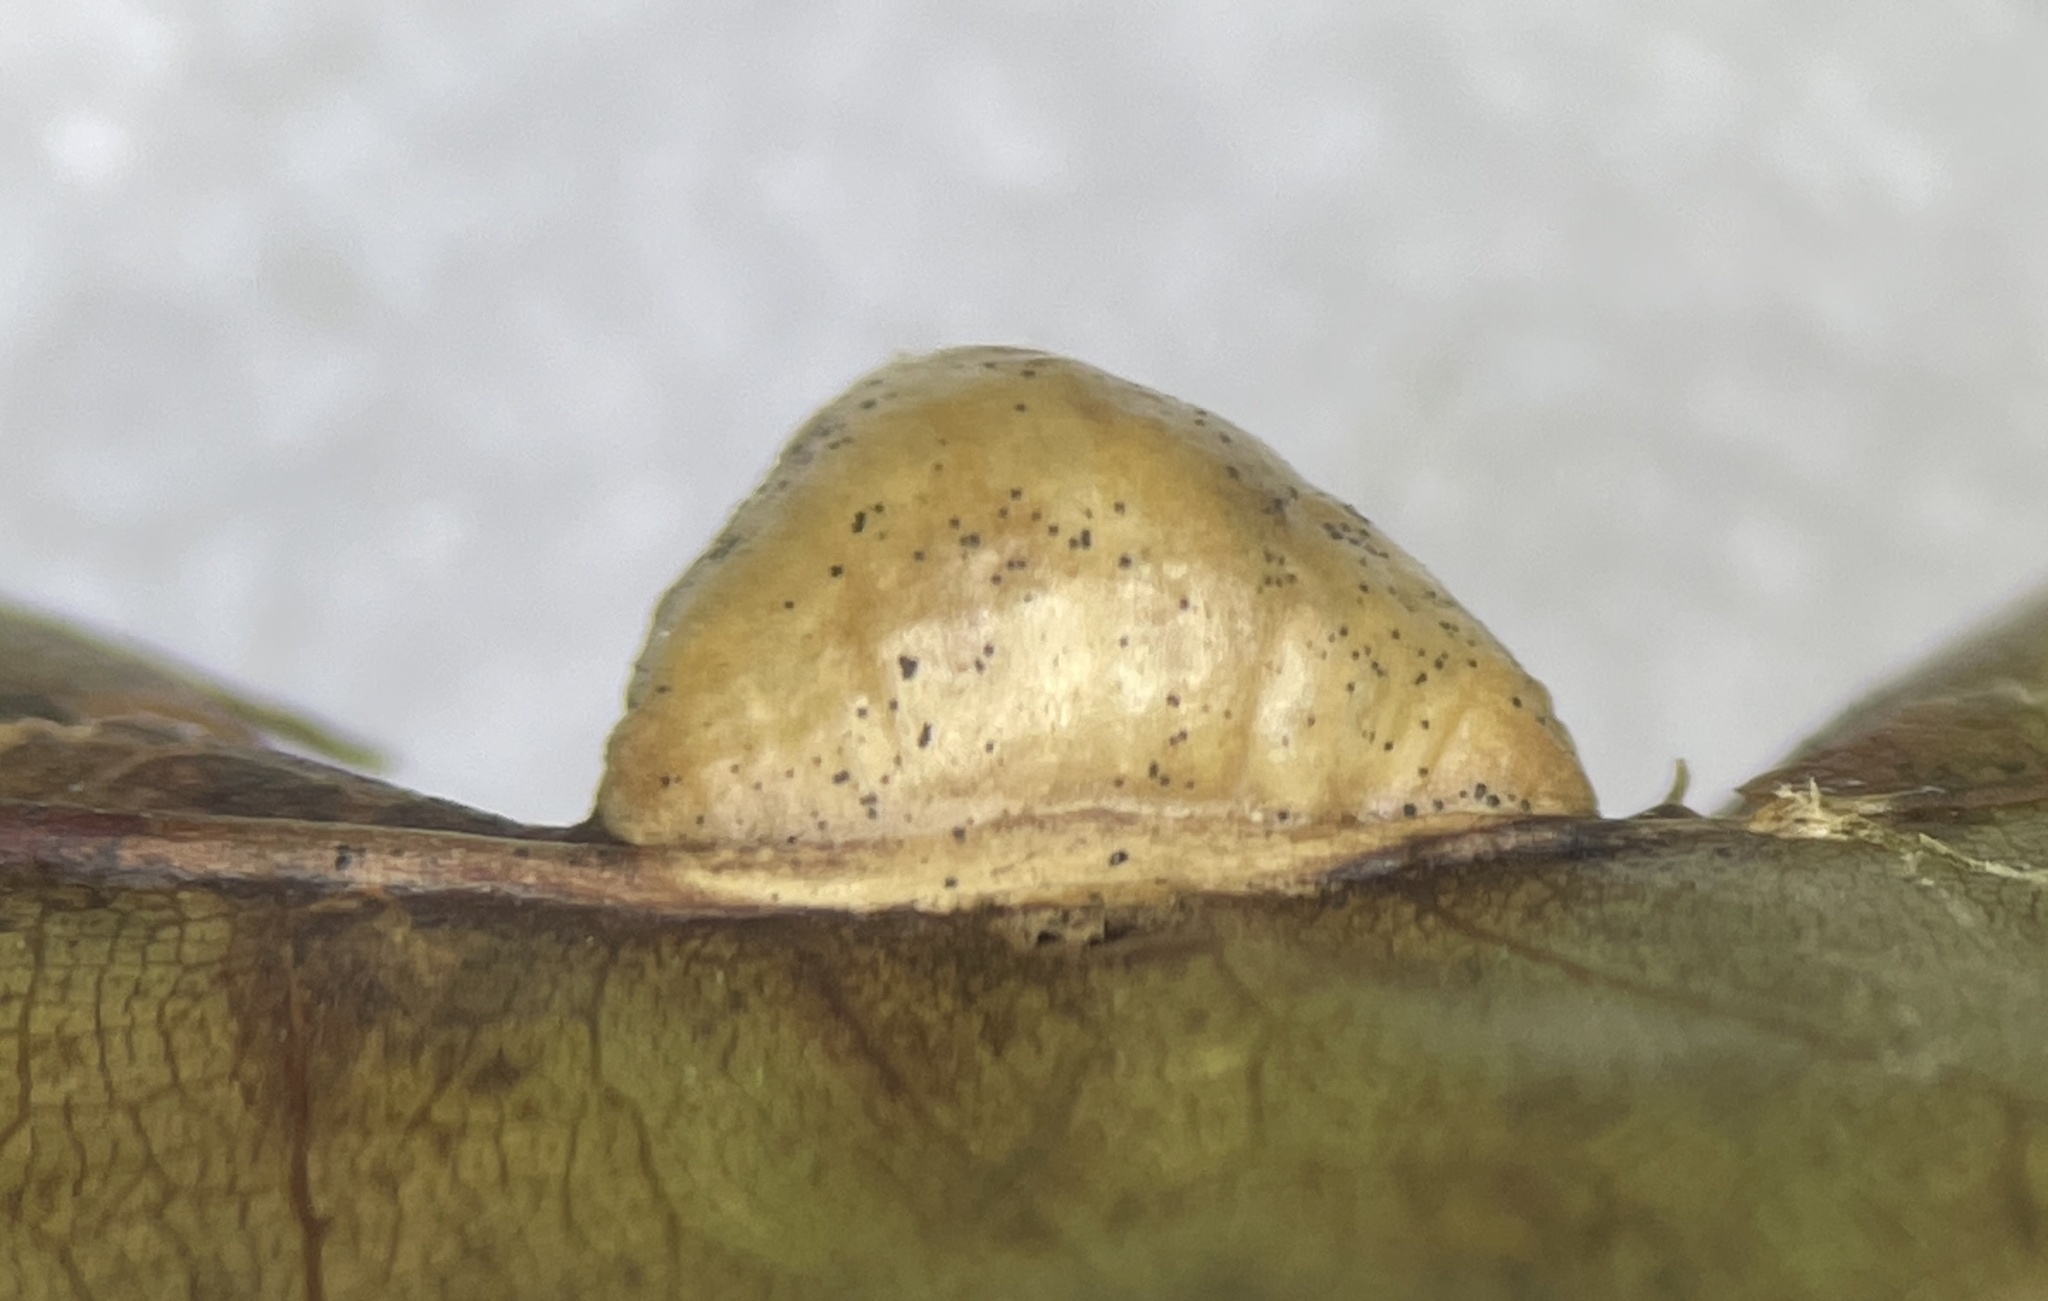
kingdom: Animalia
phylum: Arthropoda
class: Insecta
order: Diptera
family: Cecidomyiidae
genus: Macrodiplosis
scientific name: Macrodiplosis majalis
